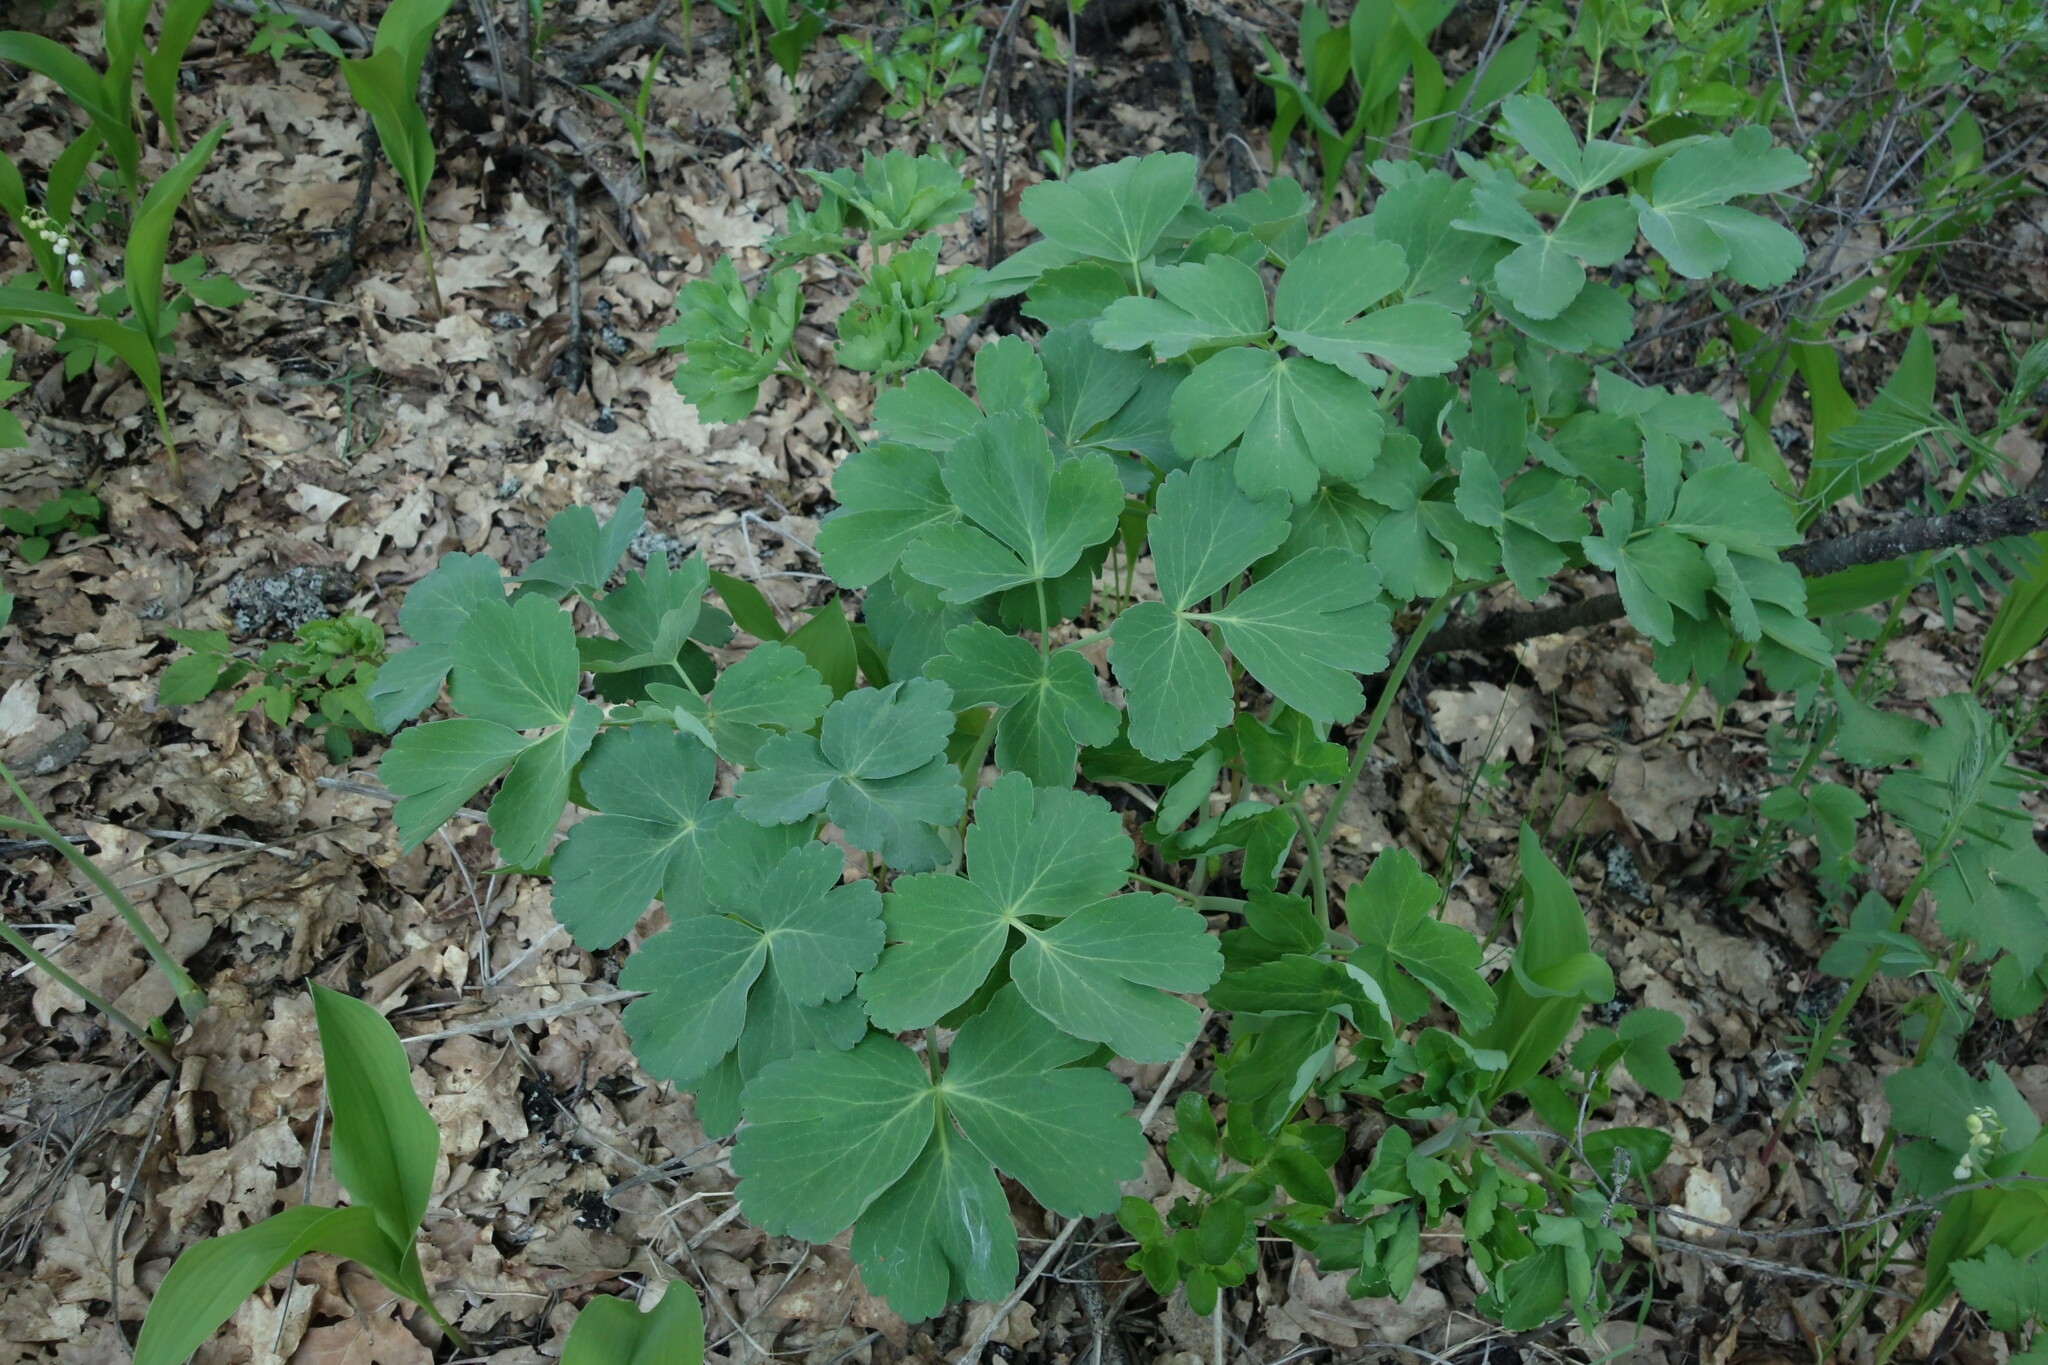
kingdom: Plantae
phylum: Tracheophyta
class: Magnoliopsida
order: Apiales
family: Apiaceae
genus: Laser
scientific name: Laser trilobum
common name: Laser
